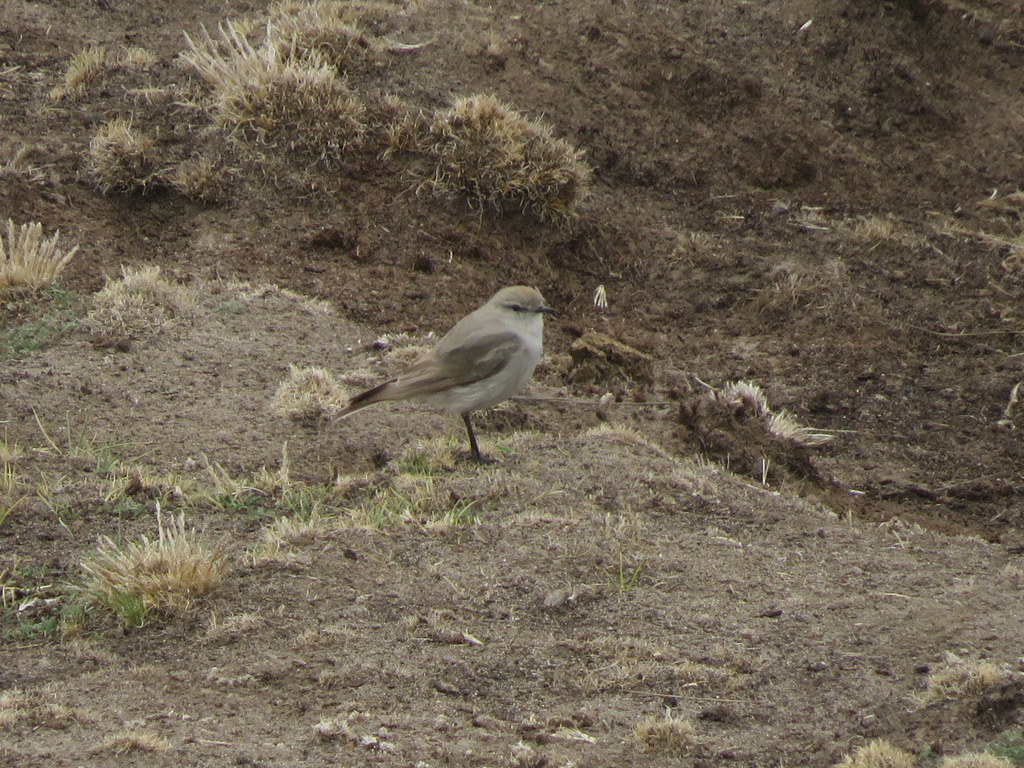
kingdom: Animalia
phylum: Chordata
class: Aves
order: Passeriformes
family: Tyrannidae
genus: Muscisaxicola
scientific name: Muscisaxicola juninensis
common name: Puna ground tyrant
